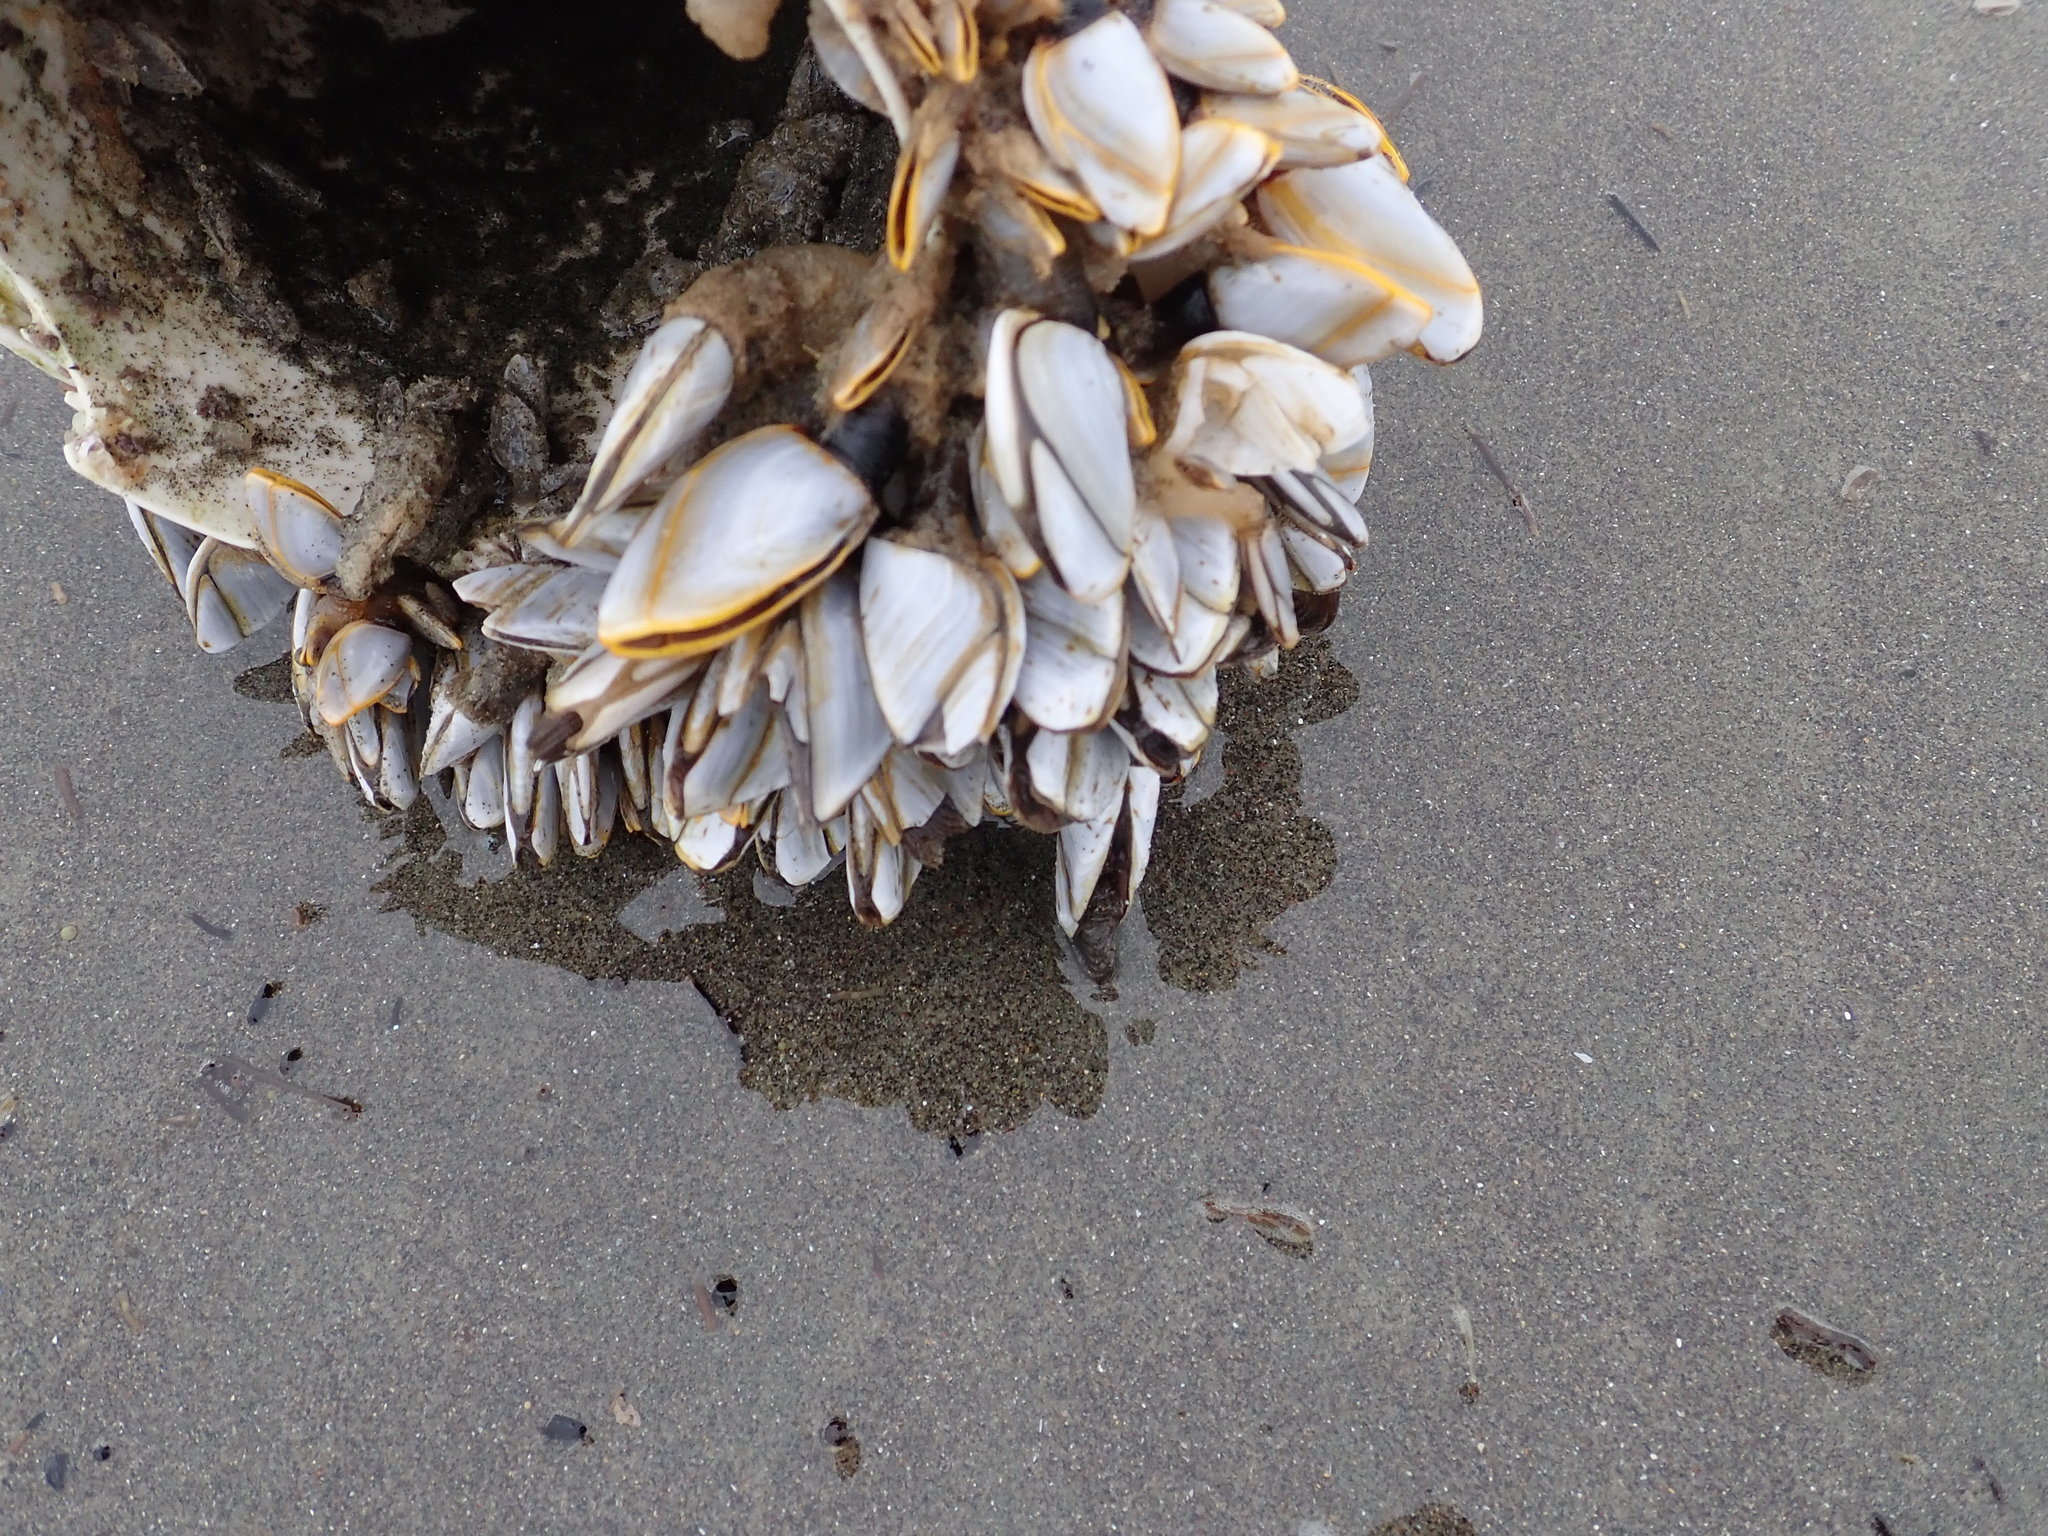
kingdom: Animalia
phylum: Arthropoda
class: Maxillopoda
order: Pedunculata
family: Lepadidae
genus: Lepas
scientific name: Lepas anatifera
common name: Common goose barnacle
